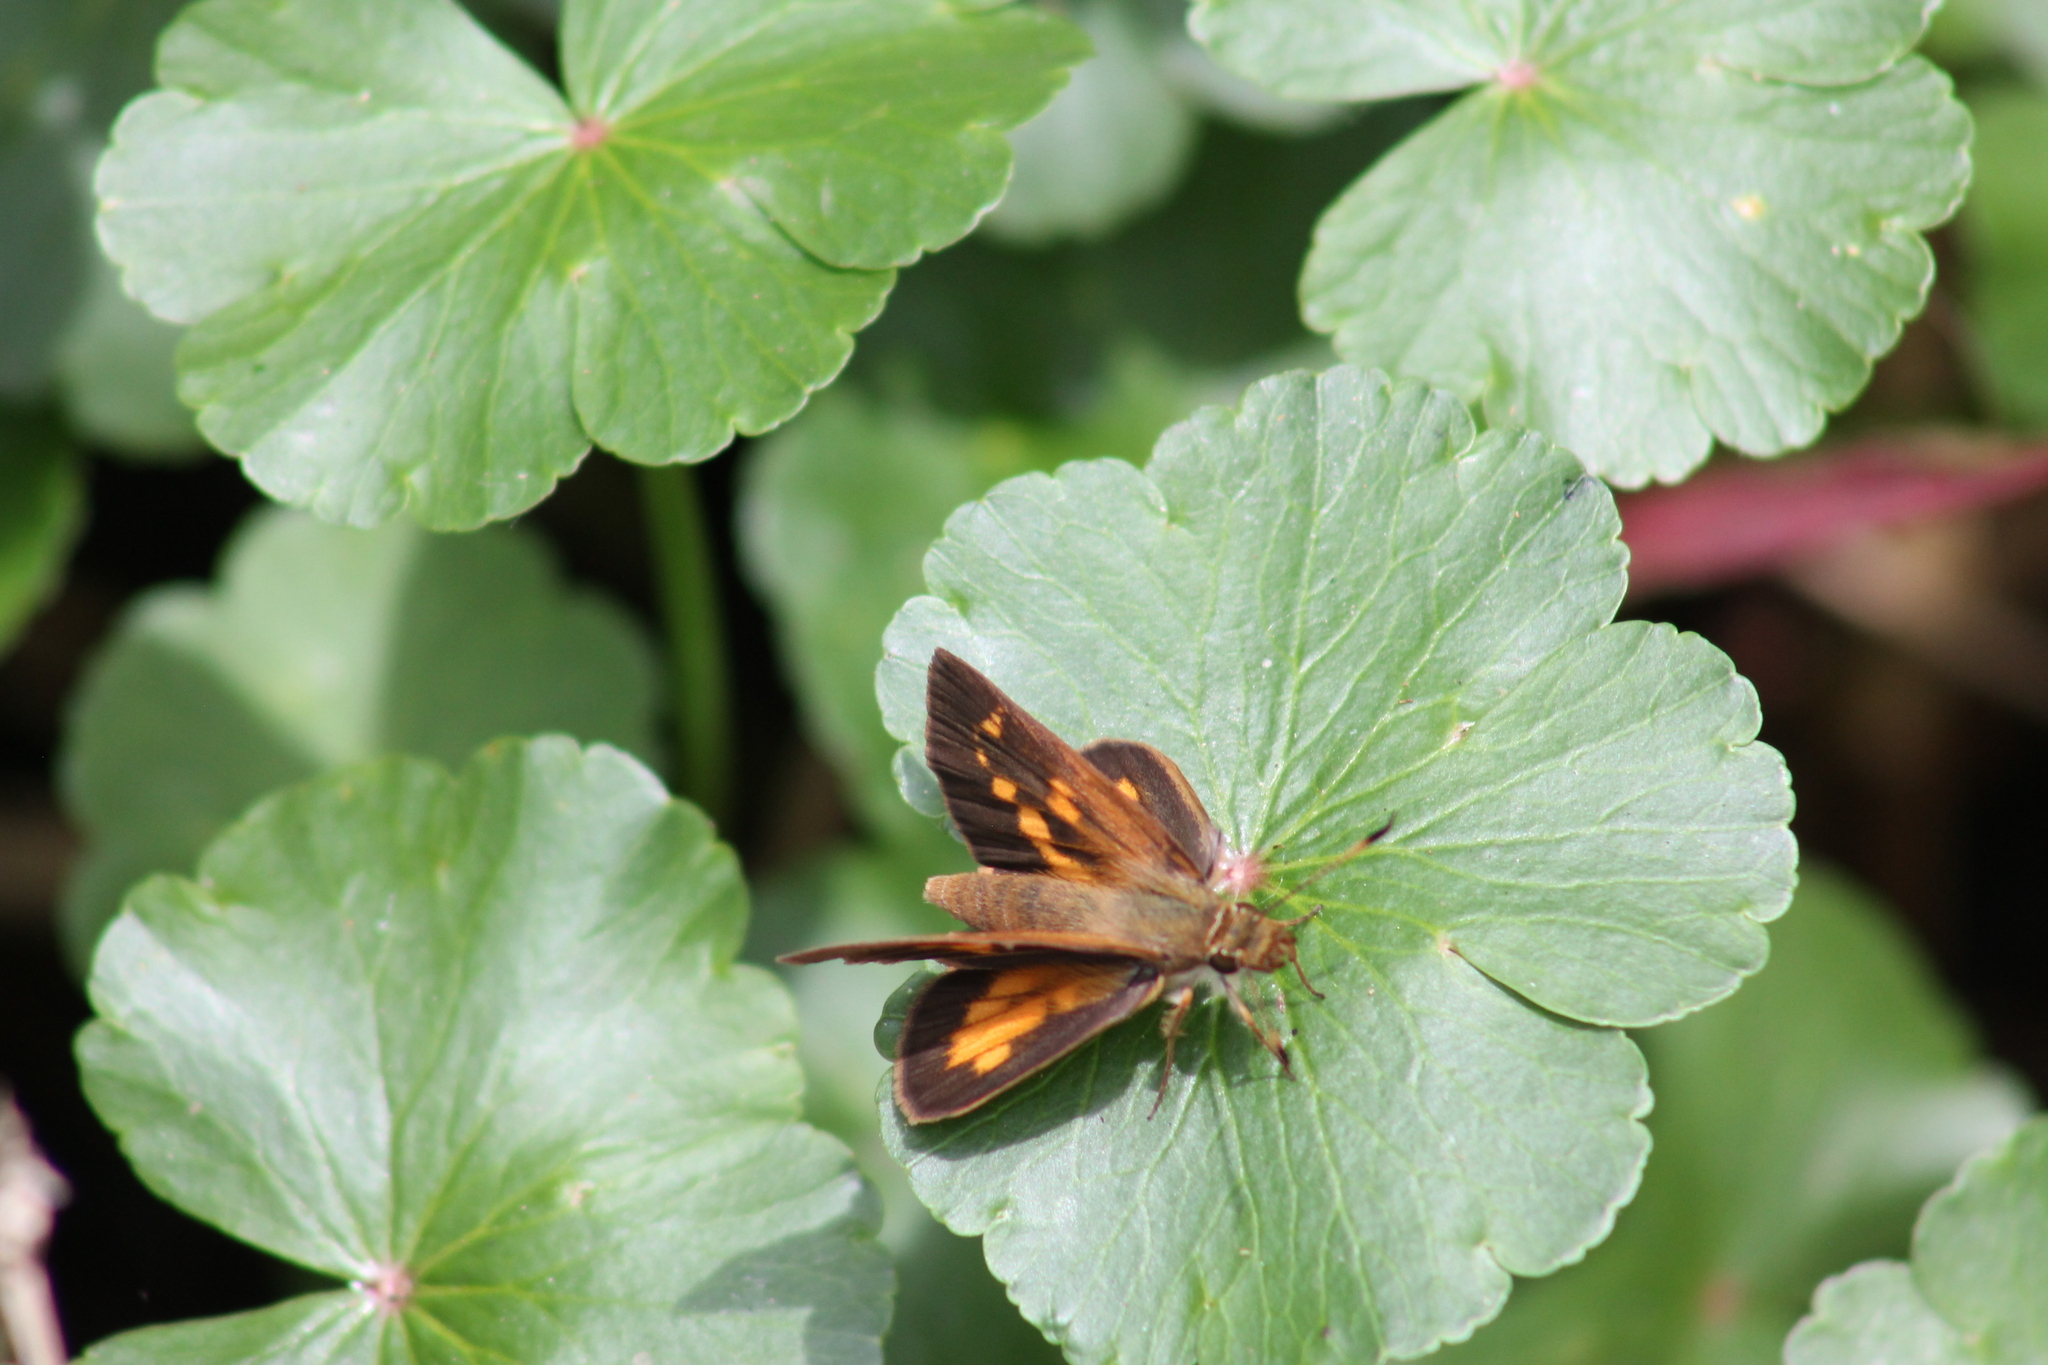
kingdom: Animalia
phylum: Arthropoda
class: Insecta
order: Lepidoptera
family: Hesperiidae
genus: Poanes
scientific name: Poanes viator
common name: Broad-winged skipper
